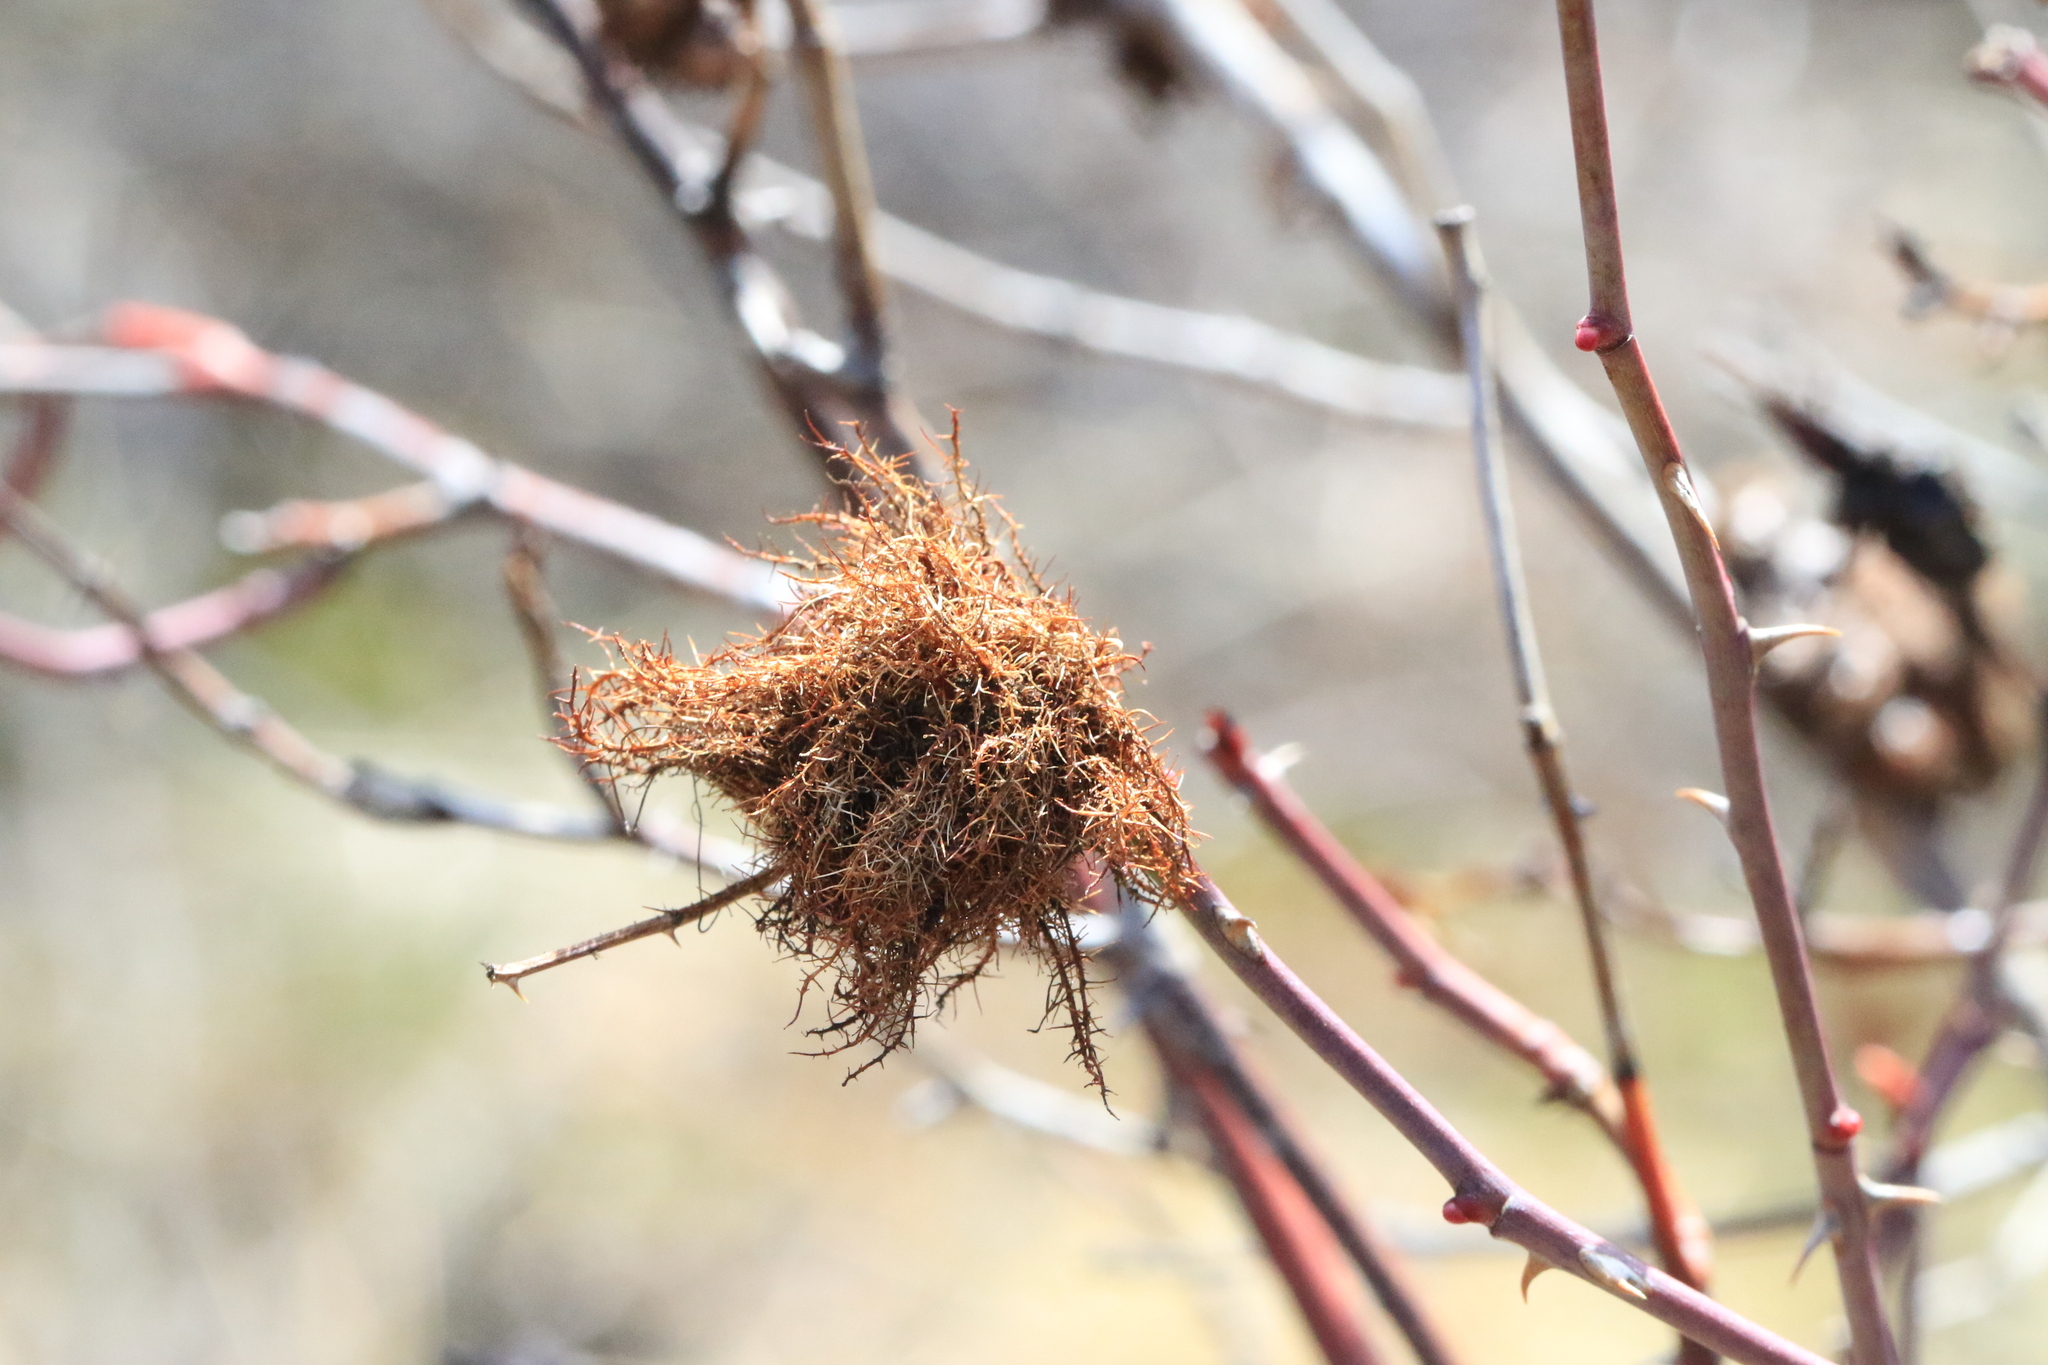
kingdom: Animalia
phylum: Arthropoda
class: Insecta
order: Hymenoptera
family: Cynipidae
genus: Diplolepis
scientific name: Diplolepis rosae
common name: Bedeguar gall
